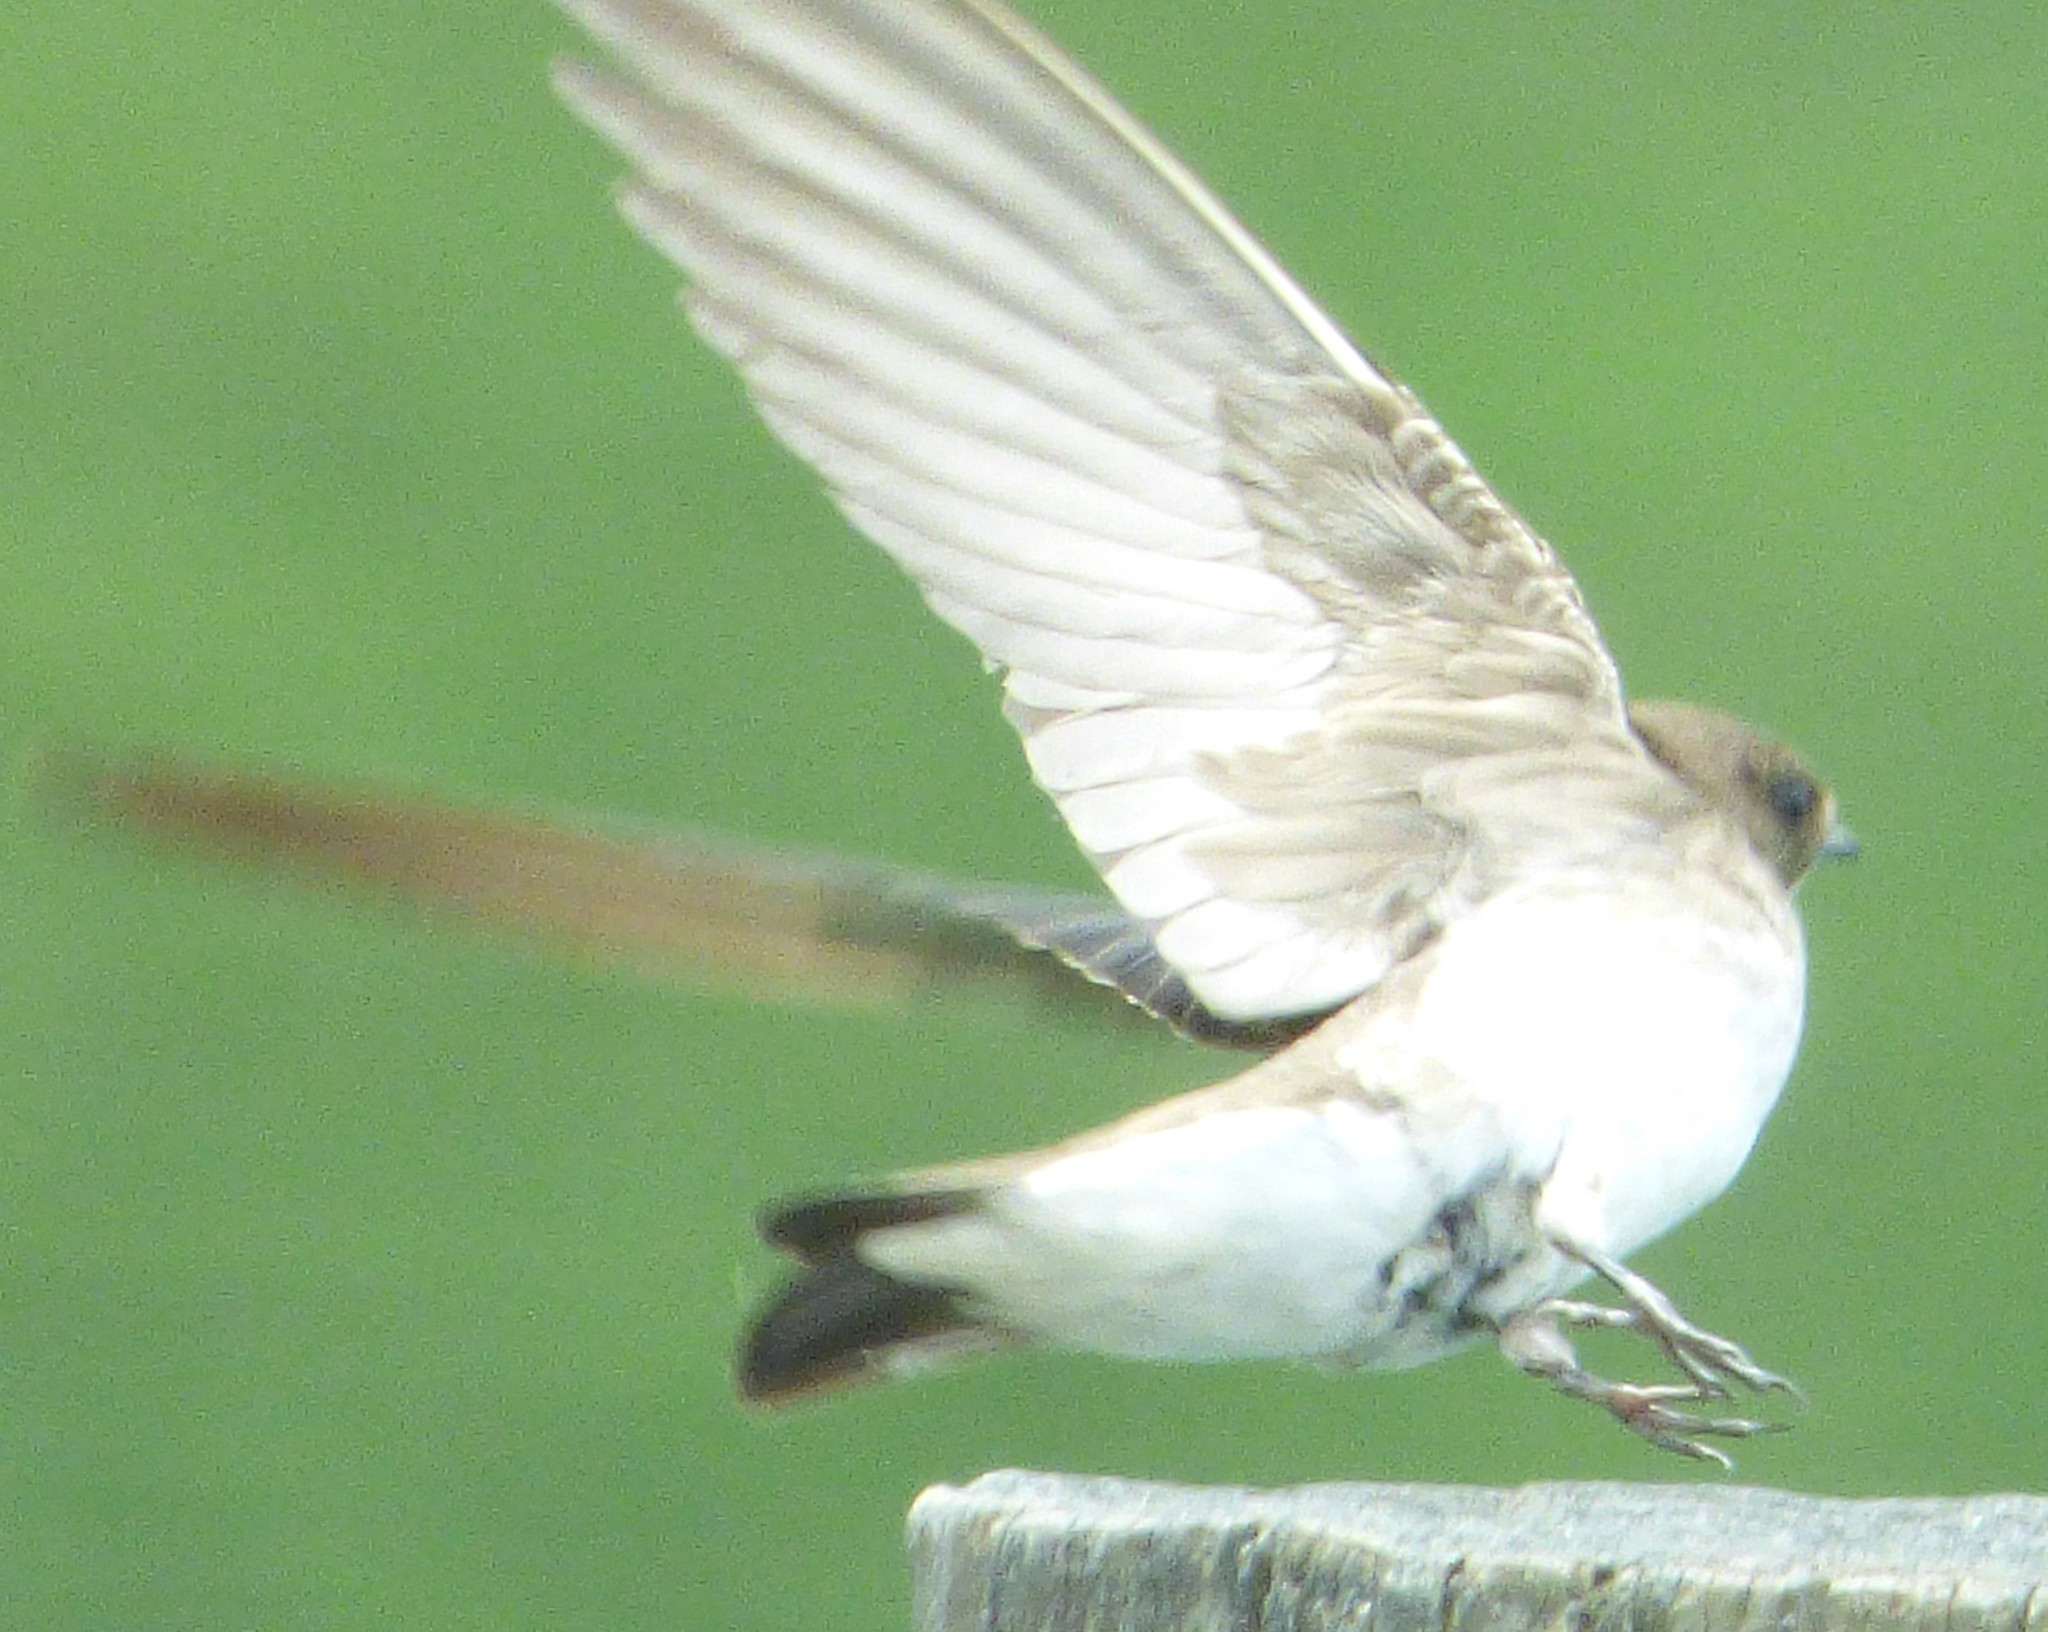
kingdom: Animalia
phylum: Chordata
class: Aves
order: Passeriformes
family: Hirundinidae
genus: Stelgidopteryx
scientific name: Stelgidopteryx serripennis
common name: Northern rough-winged swallow
